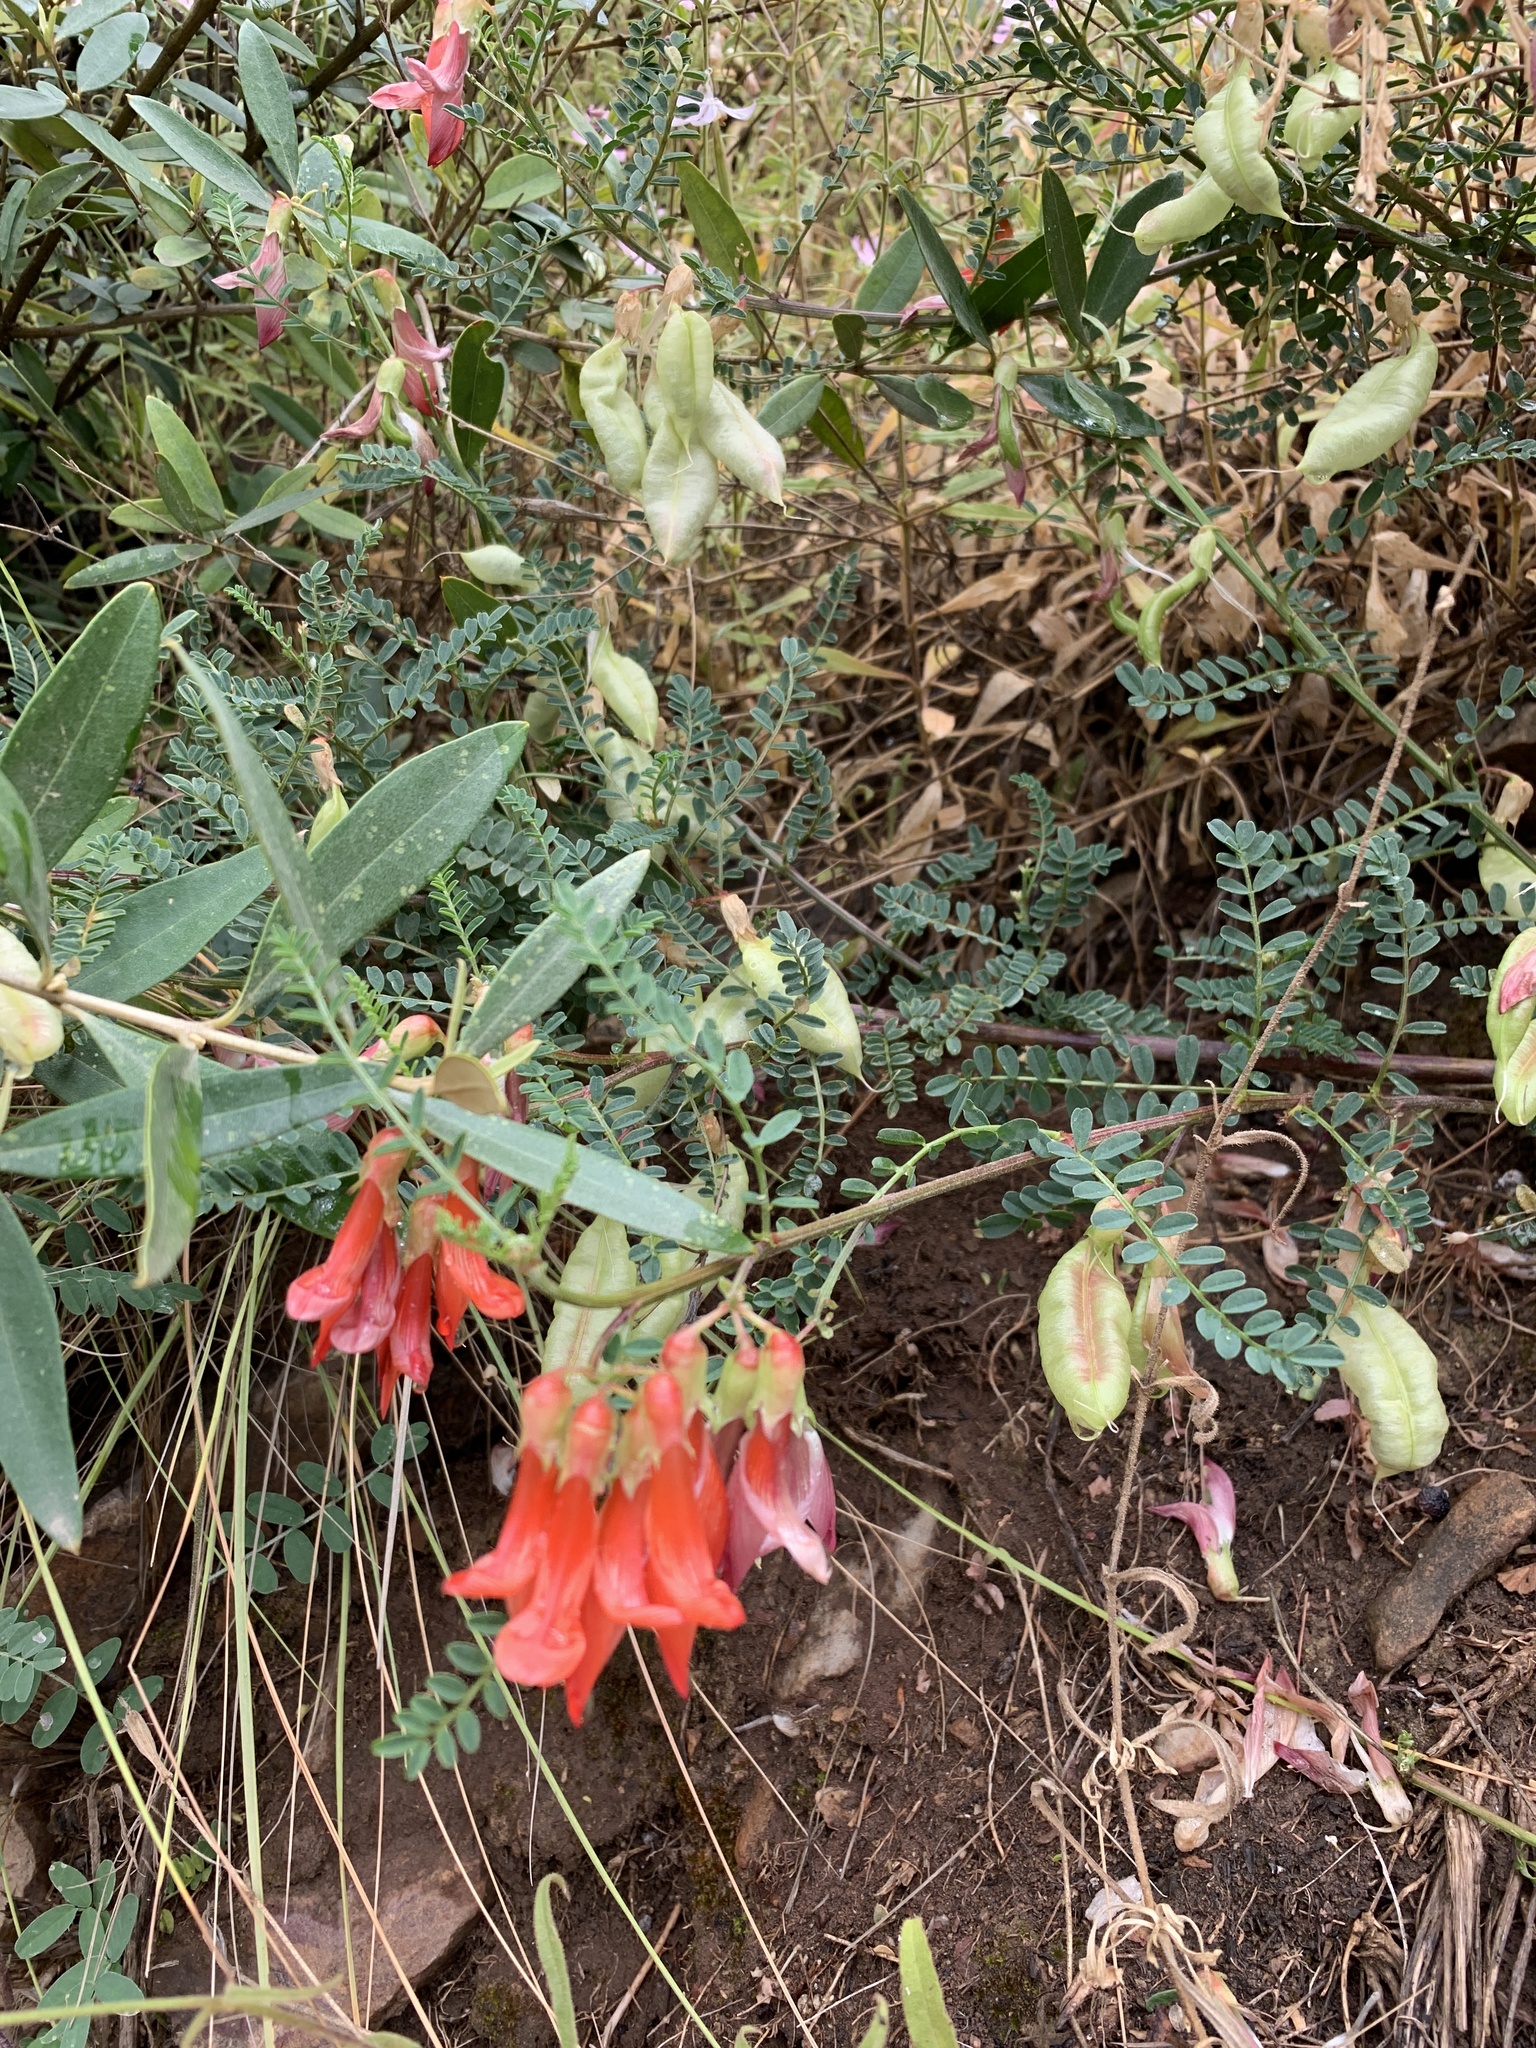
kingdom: Plantae
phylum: Tracheophyta
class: Magnoliopsida
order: Fabales
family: Fabaceae
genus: Lessertia
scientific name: Lessertia frutescens
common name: Balloon-pea
